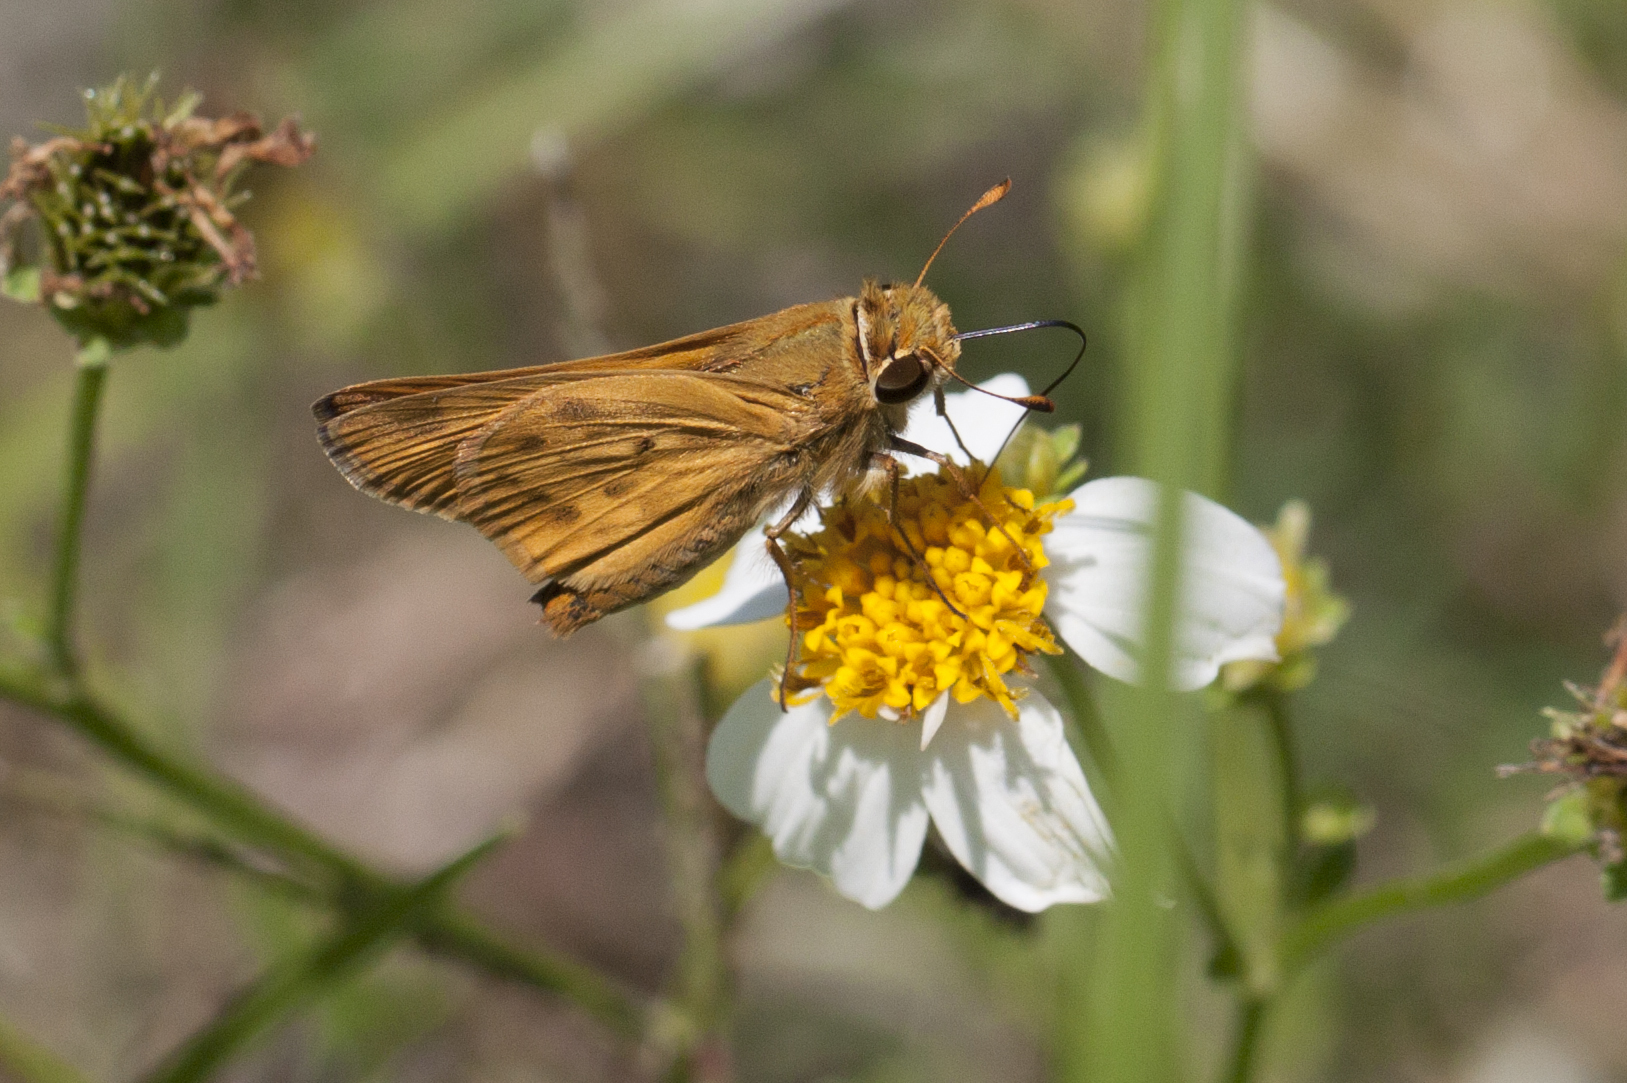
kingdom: Animalia
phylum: Arthropoda
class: Insecta
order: Lepidoptera
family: Hesperiidae
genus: Hylephila
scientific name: Hylephila phyleus
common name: Fiery skipper
